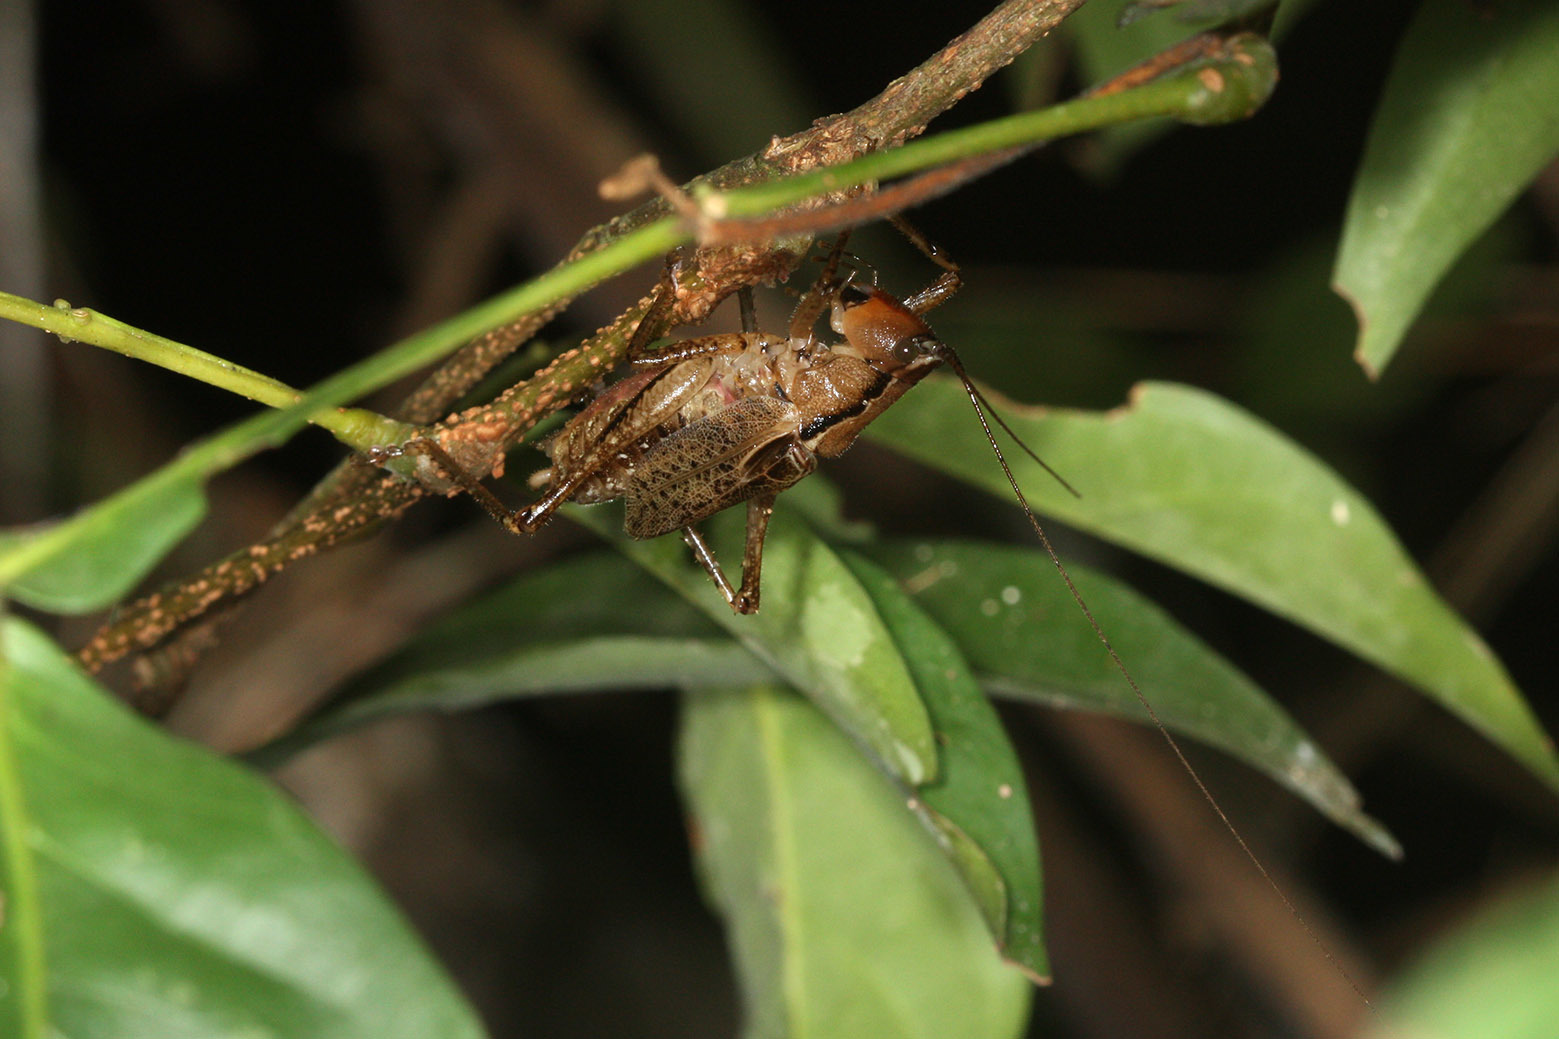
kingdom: Animalia
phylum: Arthropoda
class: Insecta
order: Orthoptera
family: Tettigoniidae
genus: Parasubria
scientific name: Parasubria vittipes
